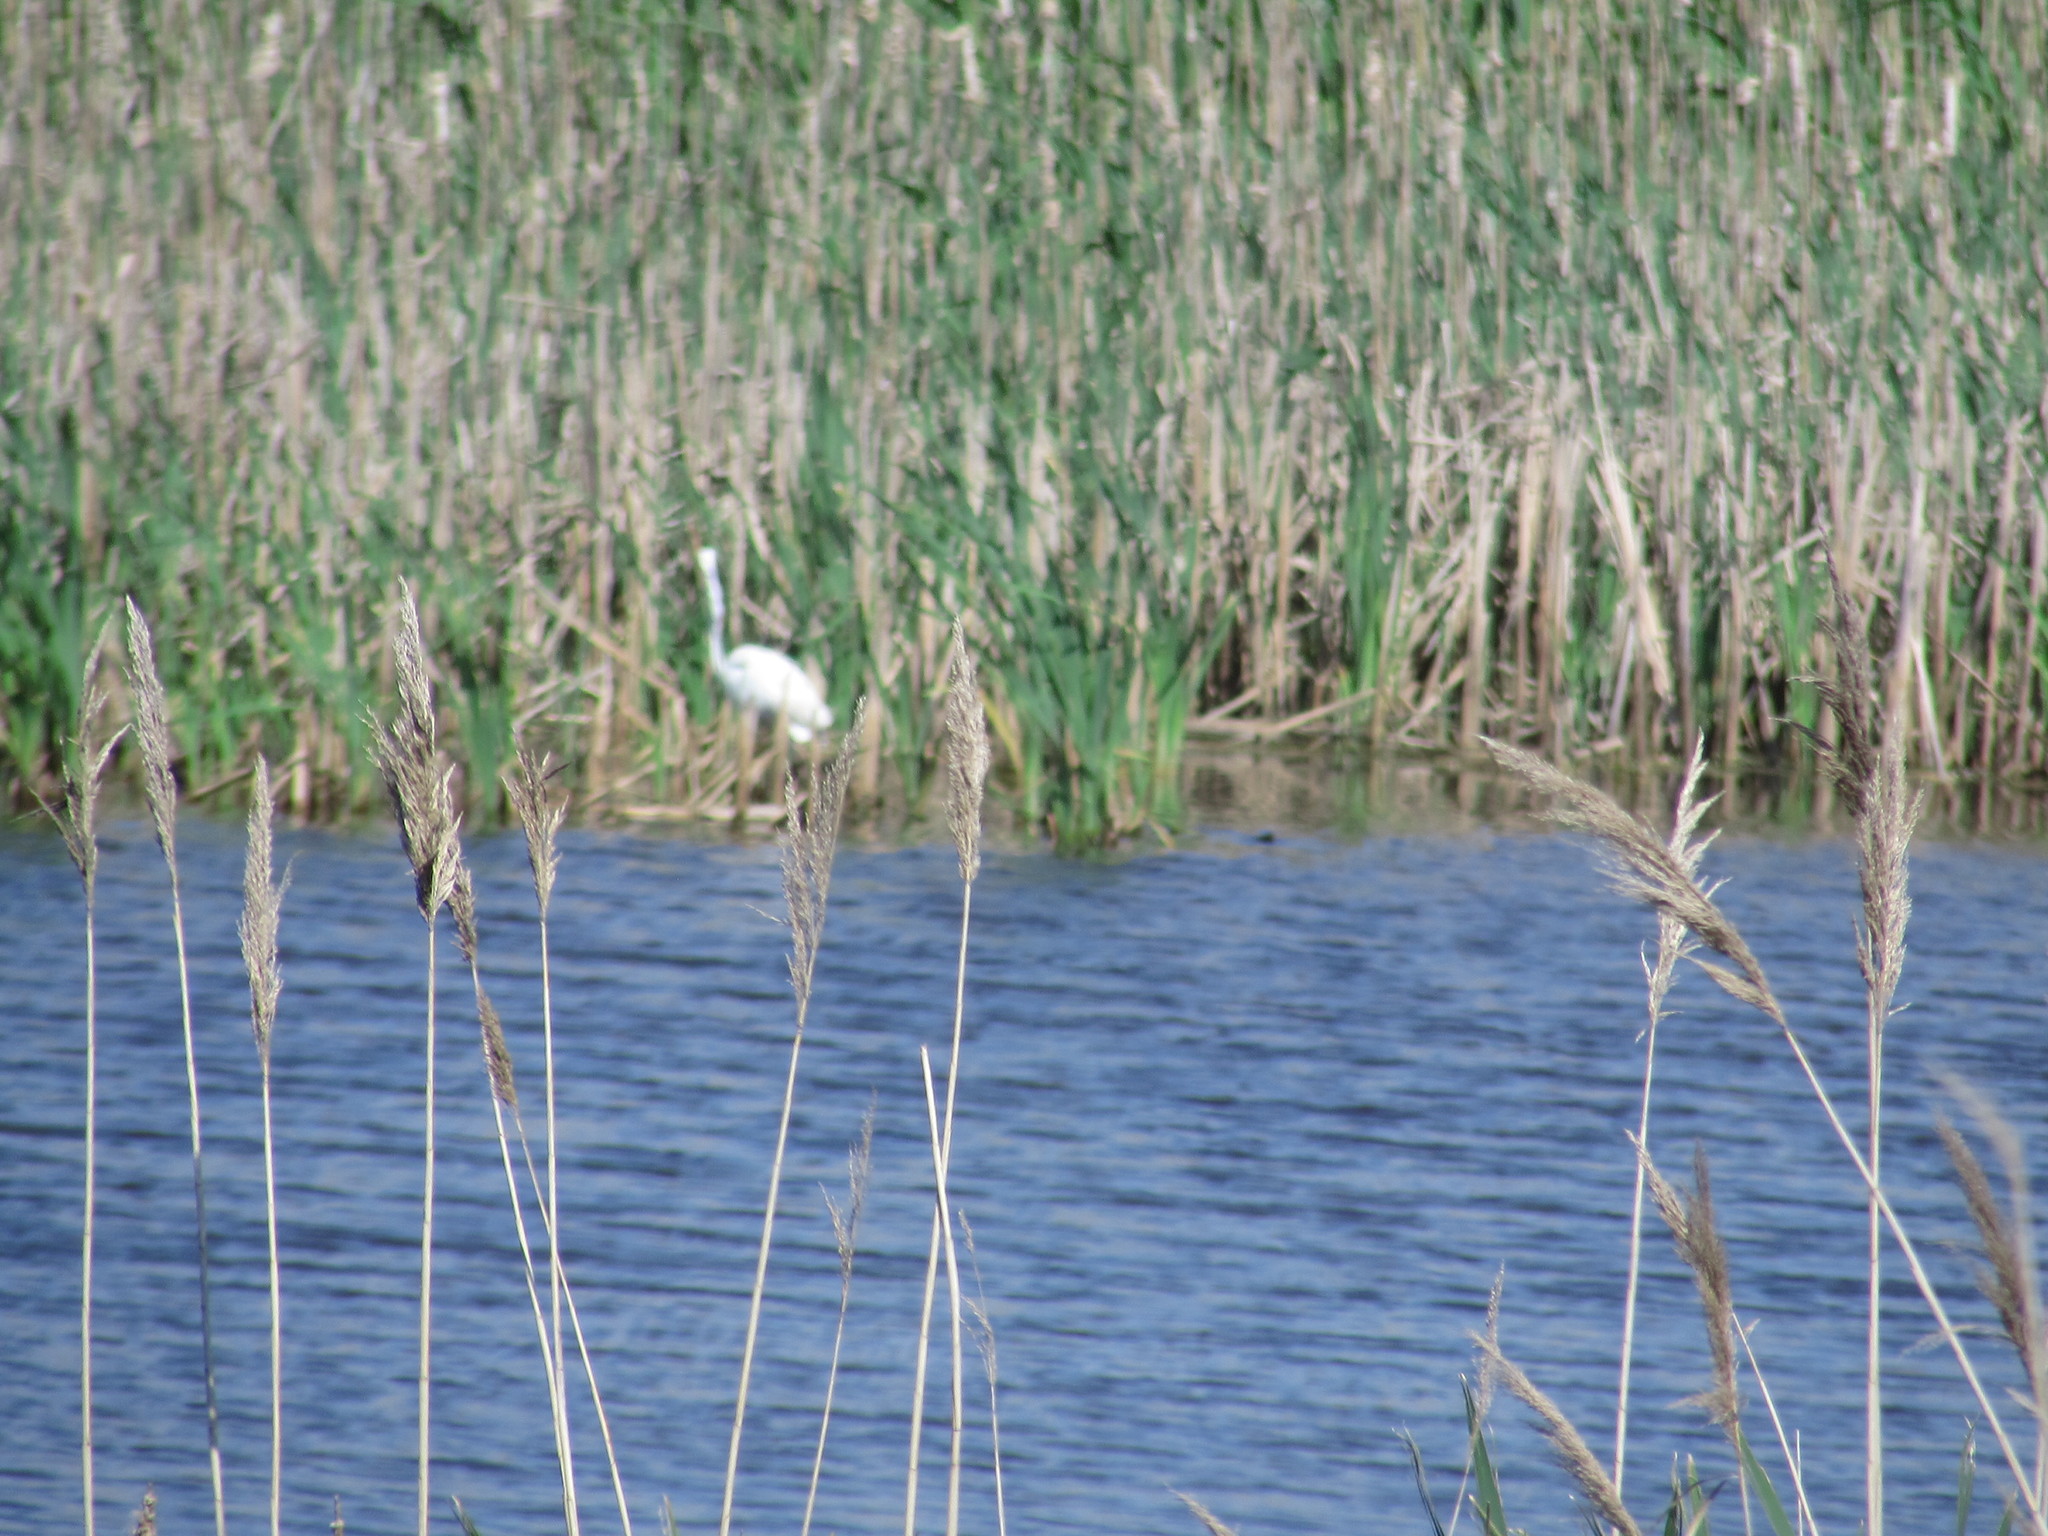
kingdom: Animalia
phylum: Chordata
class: Aves
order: Pelecaniformes
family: Ardeidae
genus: Ardea
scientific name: Ardea alba
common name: Great egret
